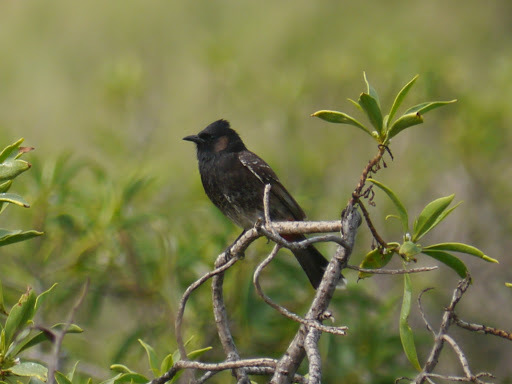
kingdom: Animalia
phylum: Chordata
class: Aves
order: Passeriformes
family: Pycnonotidae
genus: Pycnonotus
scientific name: Pycnonotus cafer
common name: Red-vented bulbul
